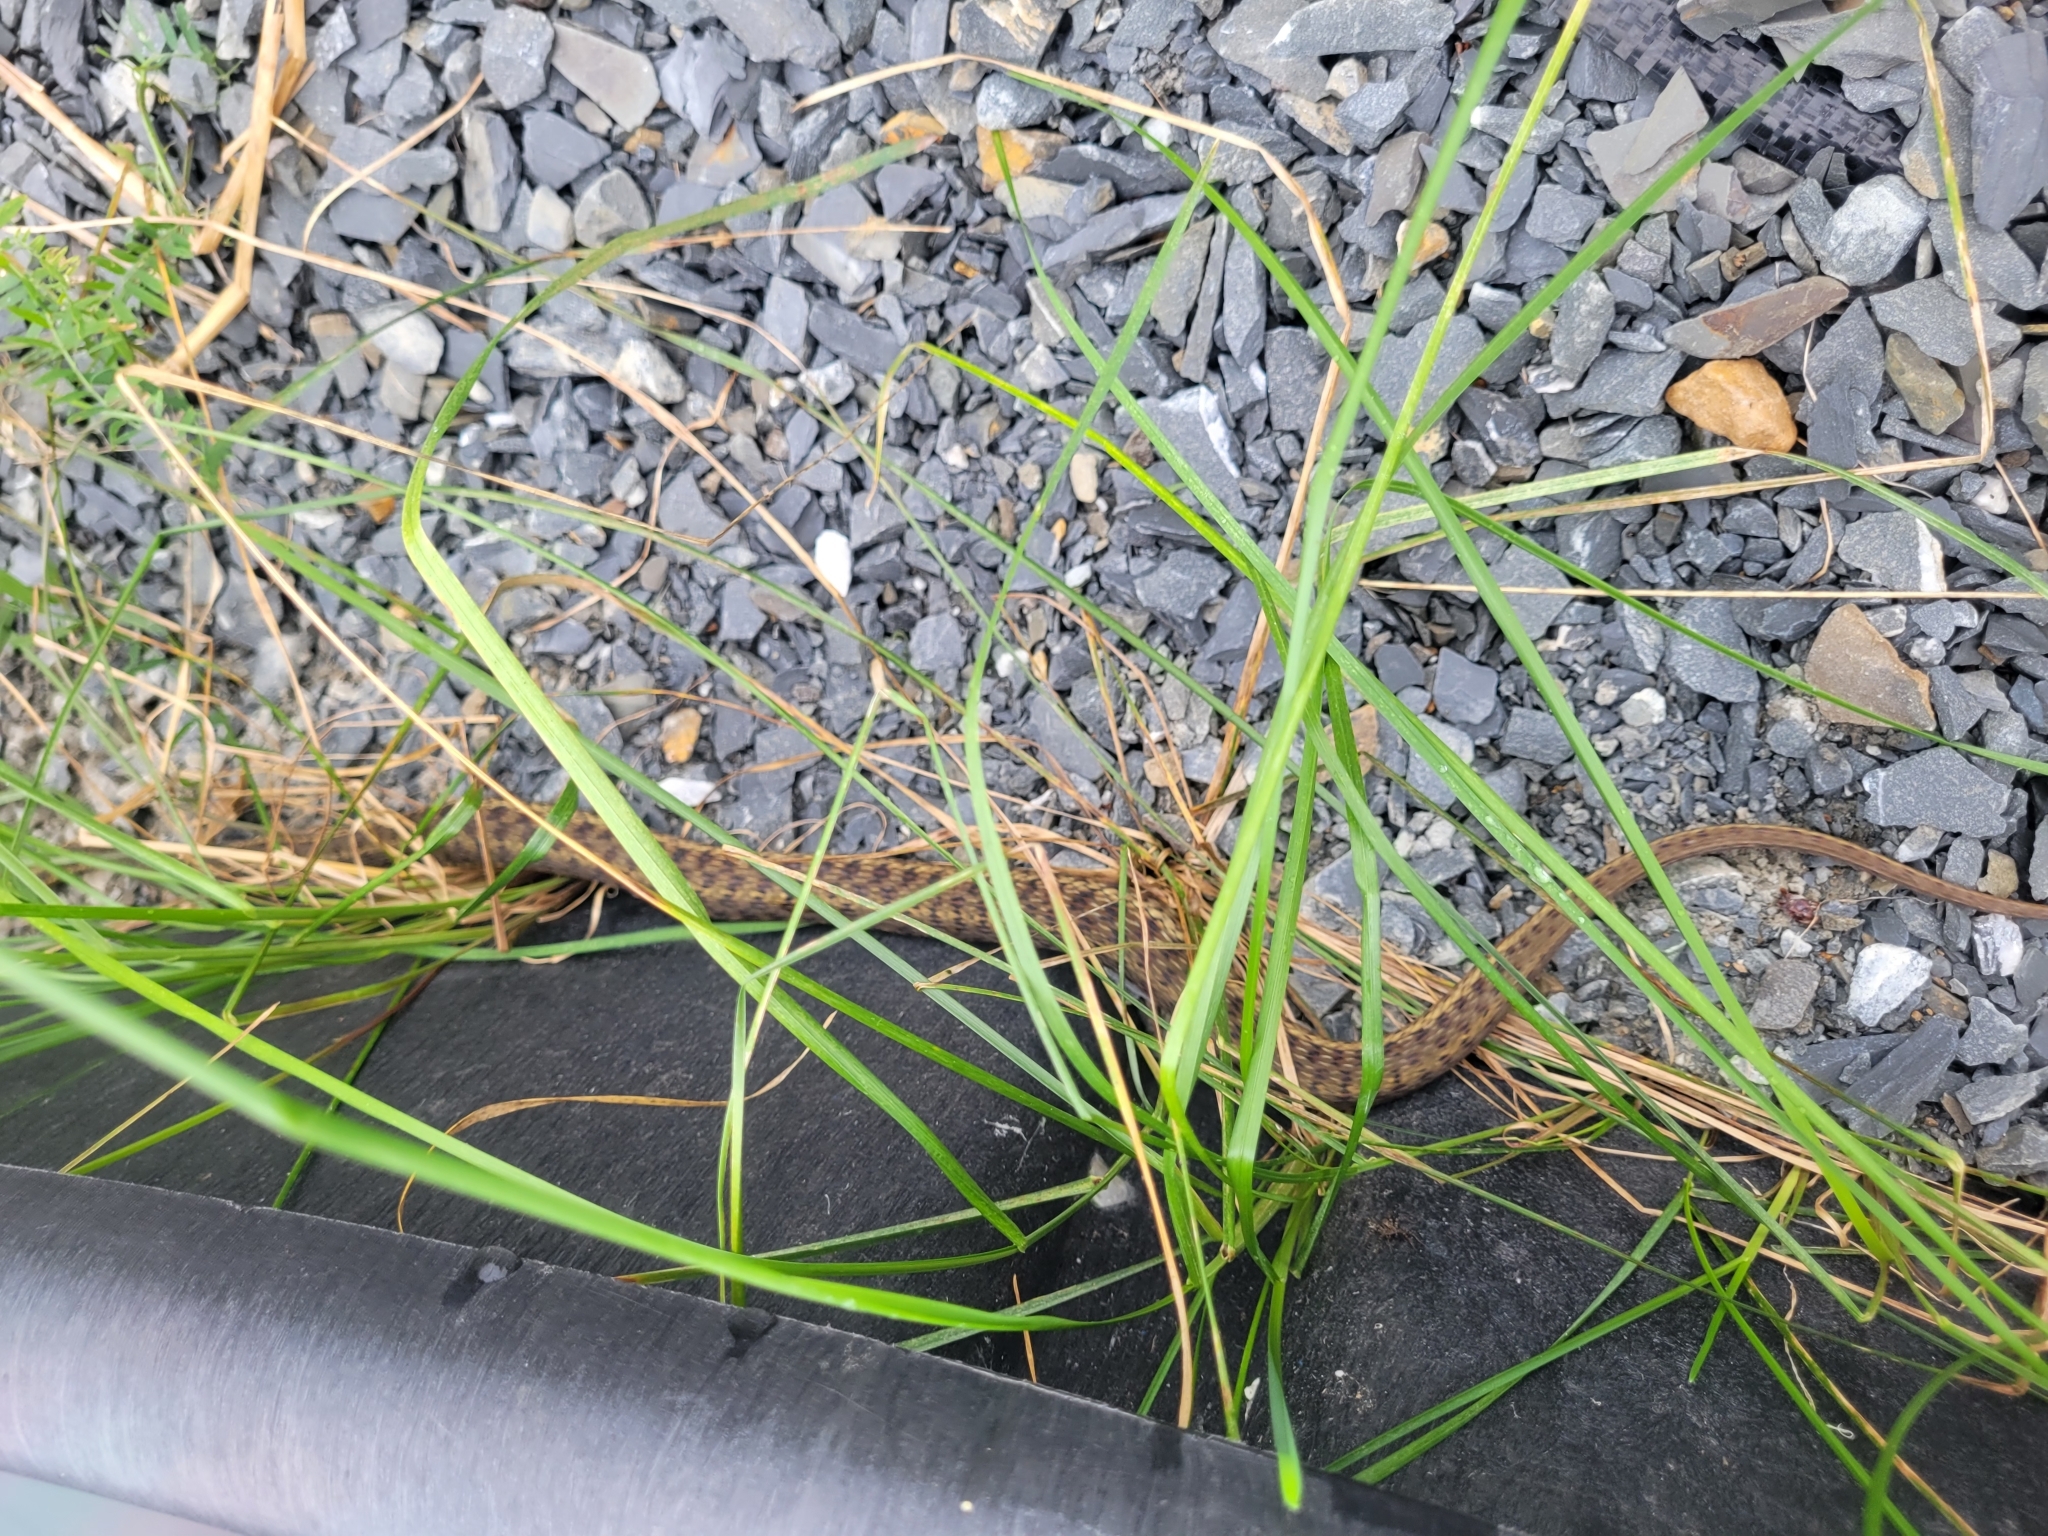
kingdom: Animalia
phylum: Chordata
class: Squamata
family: Colubridae
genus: Thamnophis
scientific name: Thamnophis sirtalis
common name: Common garter snake
